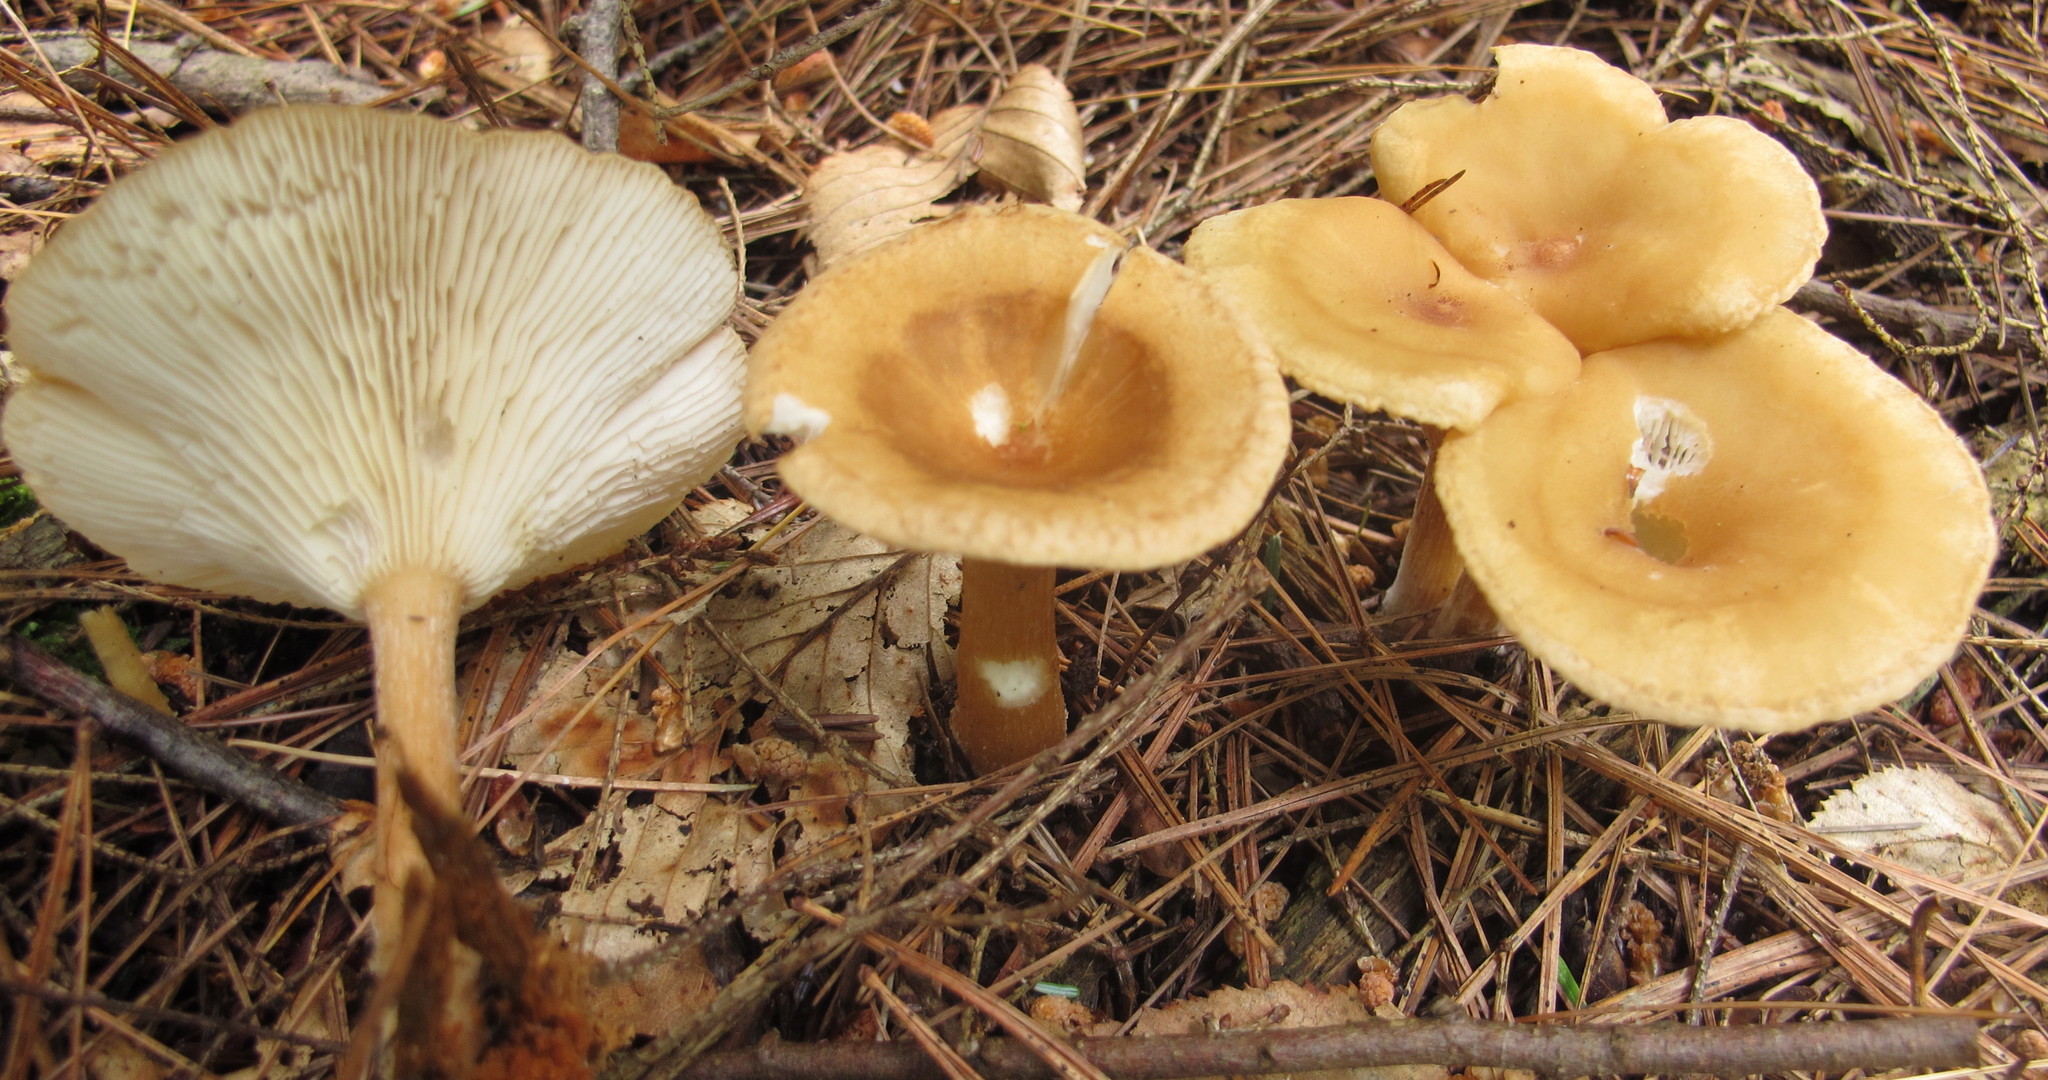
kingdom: Fungi
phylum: Basidiomycota
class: Agaricomycetes
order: Agaricales
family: Tricholomataceae
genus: Infundibulicybe
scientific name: Infundibulicybe gibba
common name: Common funnel
